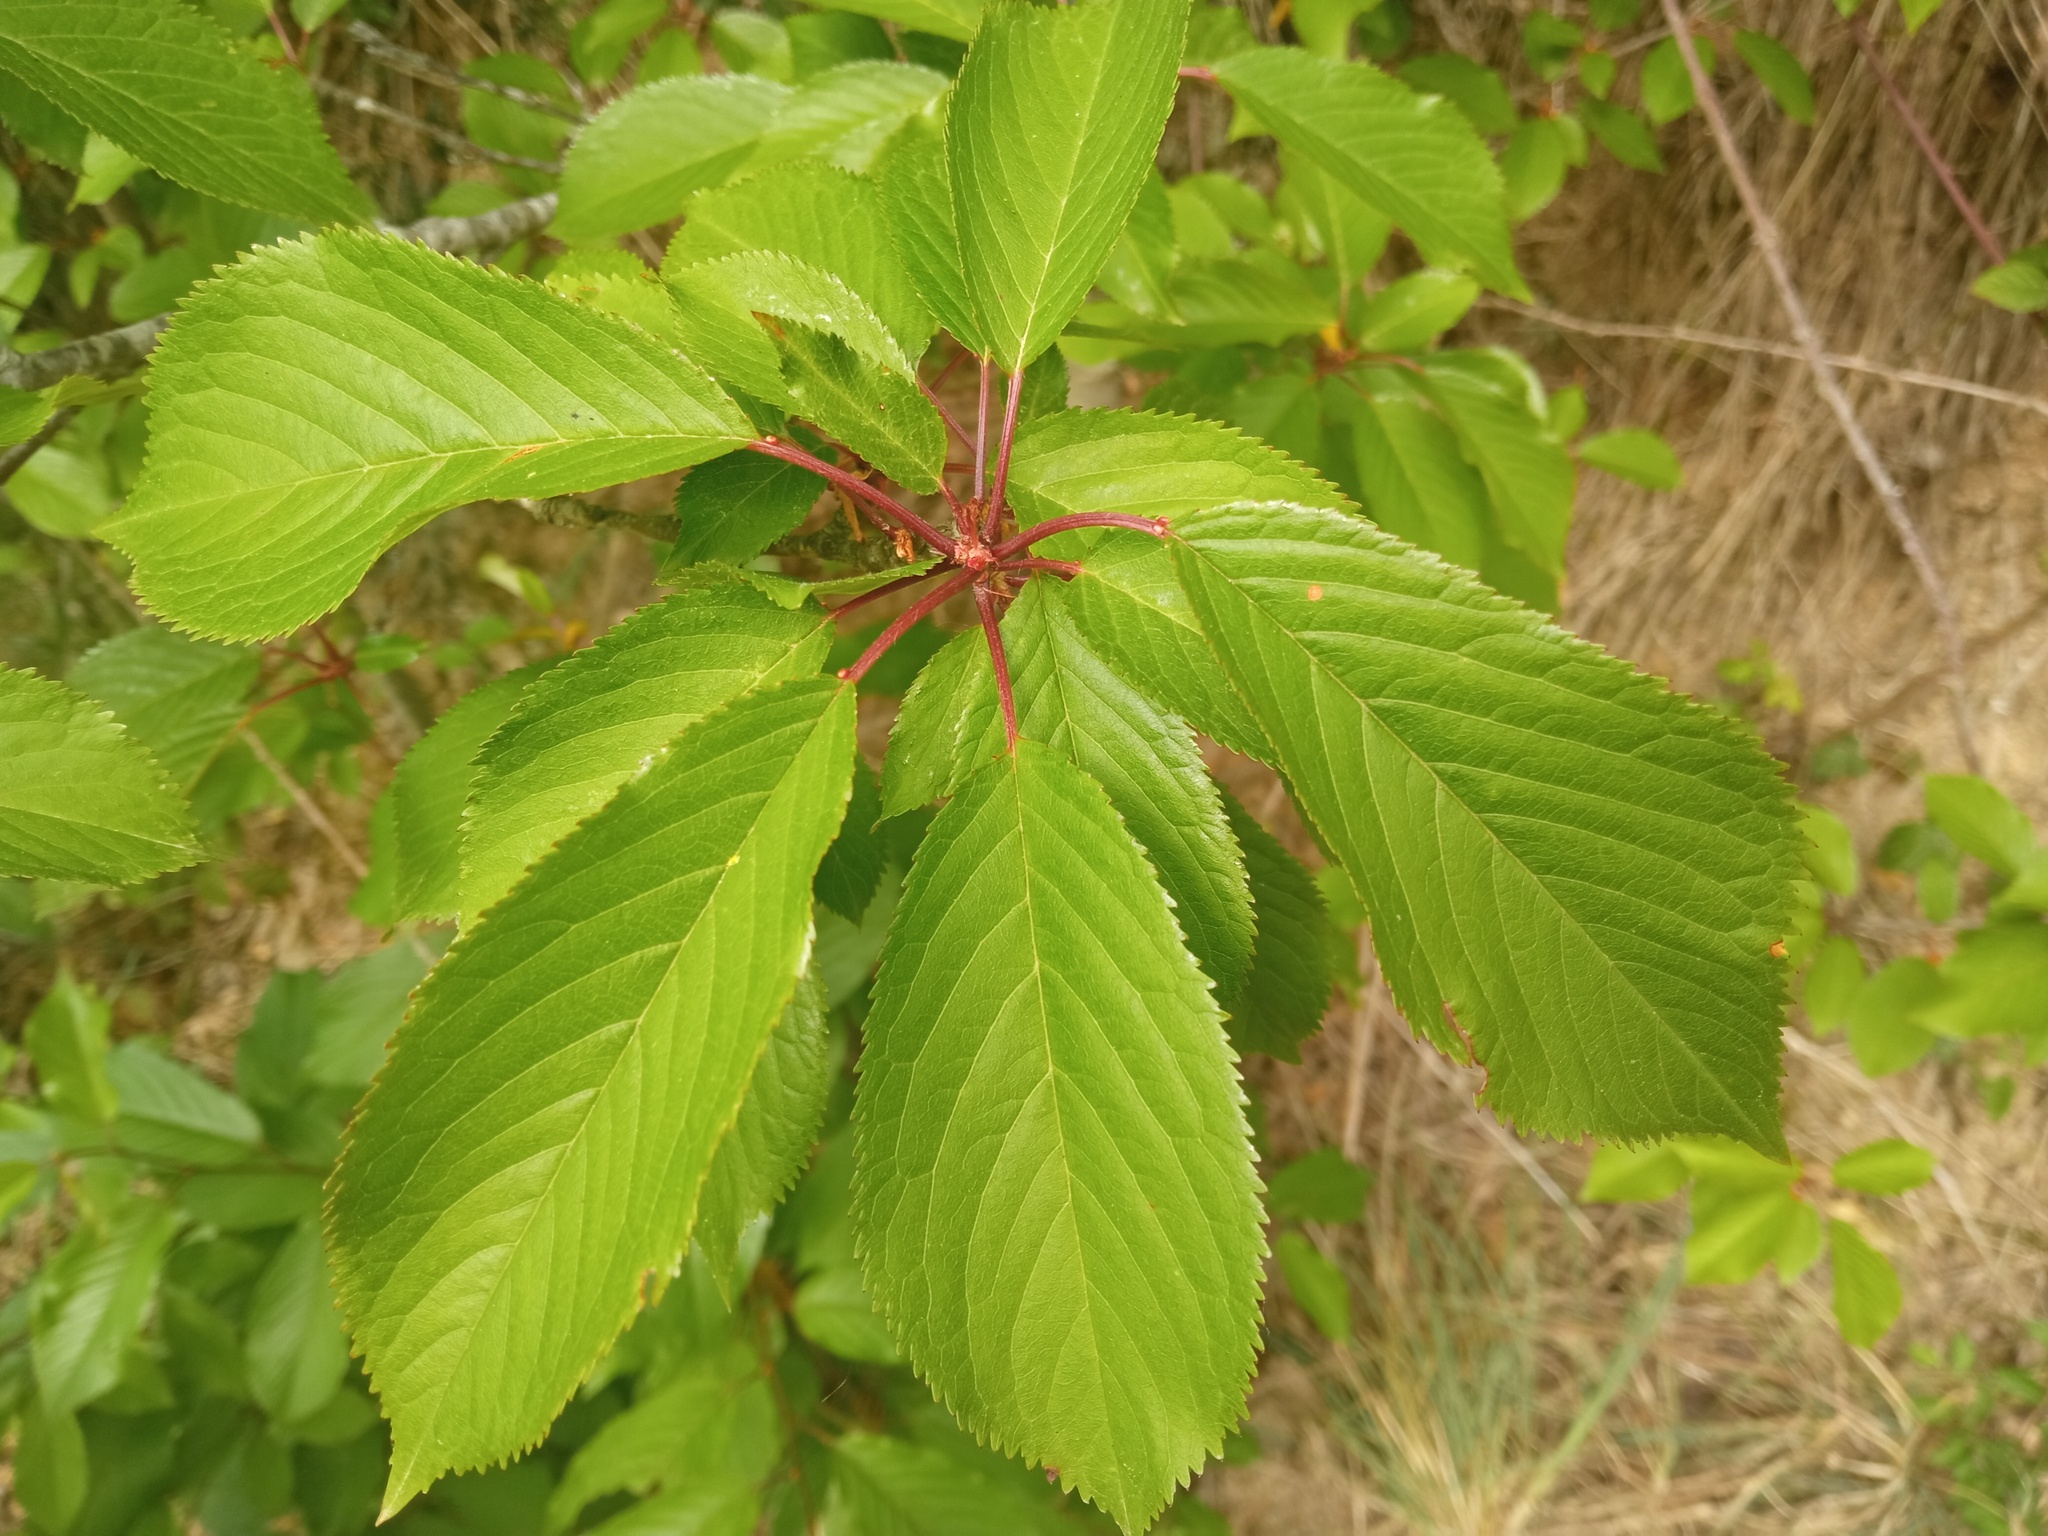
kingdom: Plantae
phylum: Tracheophyta
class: Magnoliopsida
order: Rosales
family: Rosaceae
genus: Prunus
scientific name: Prunus avium
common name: Sweet cherry
